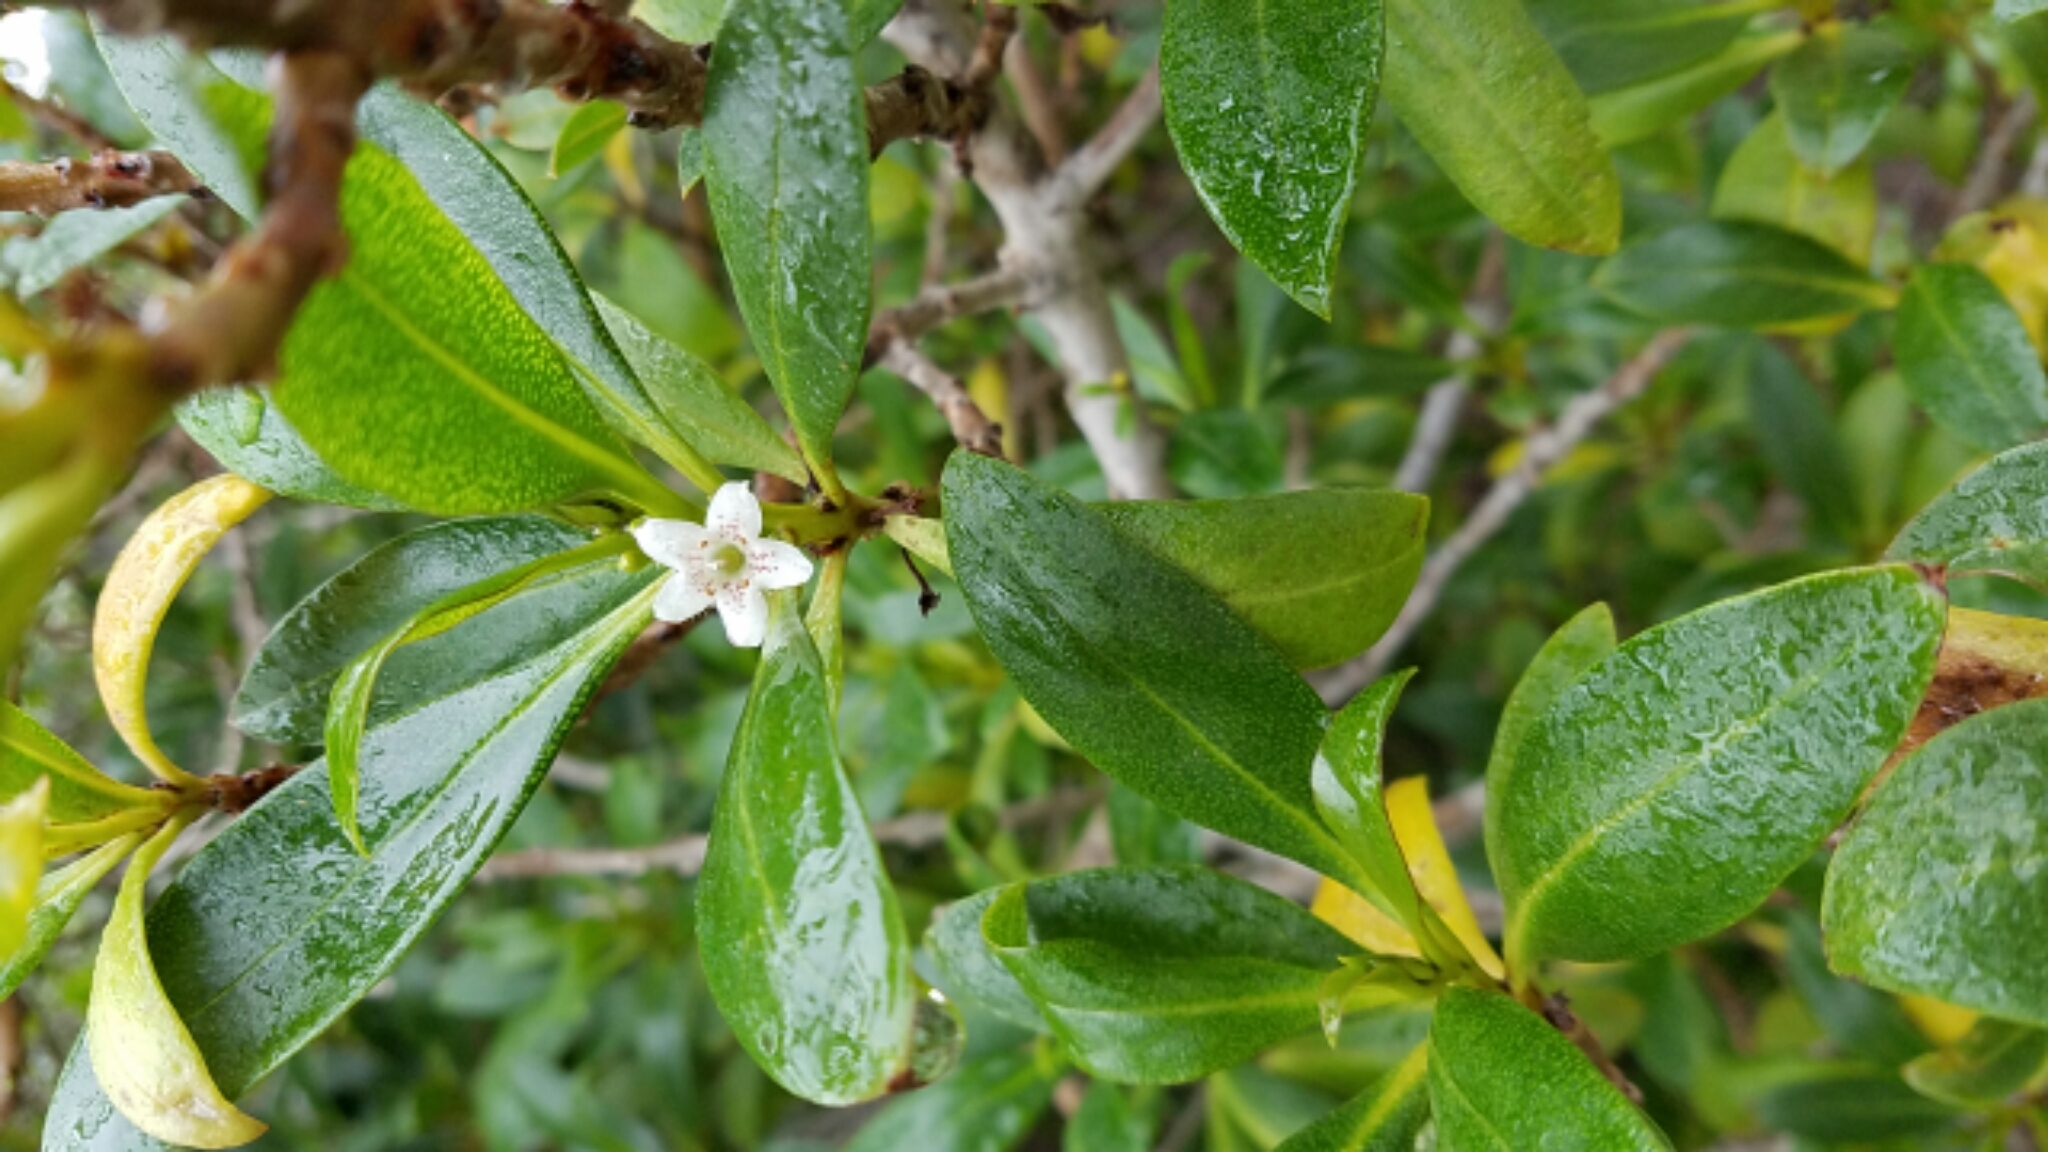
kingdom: Plantae
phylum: Tracheophyta
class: Magnoliopsida
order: Lamiales
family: Scrophulariaceae
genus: Myoporum
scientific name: Myoporum laetum
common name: Ngaio tree
